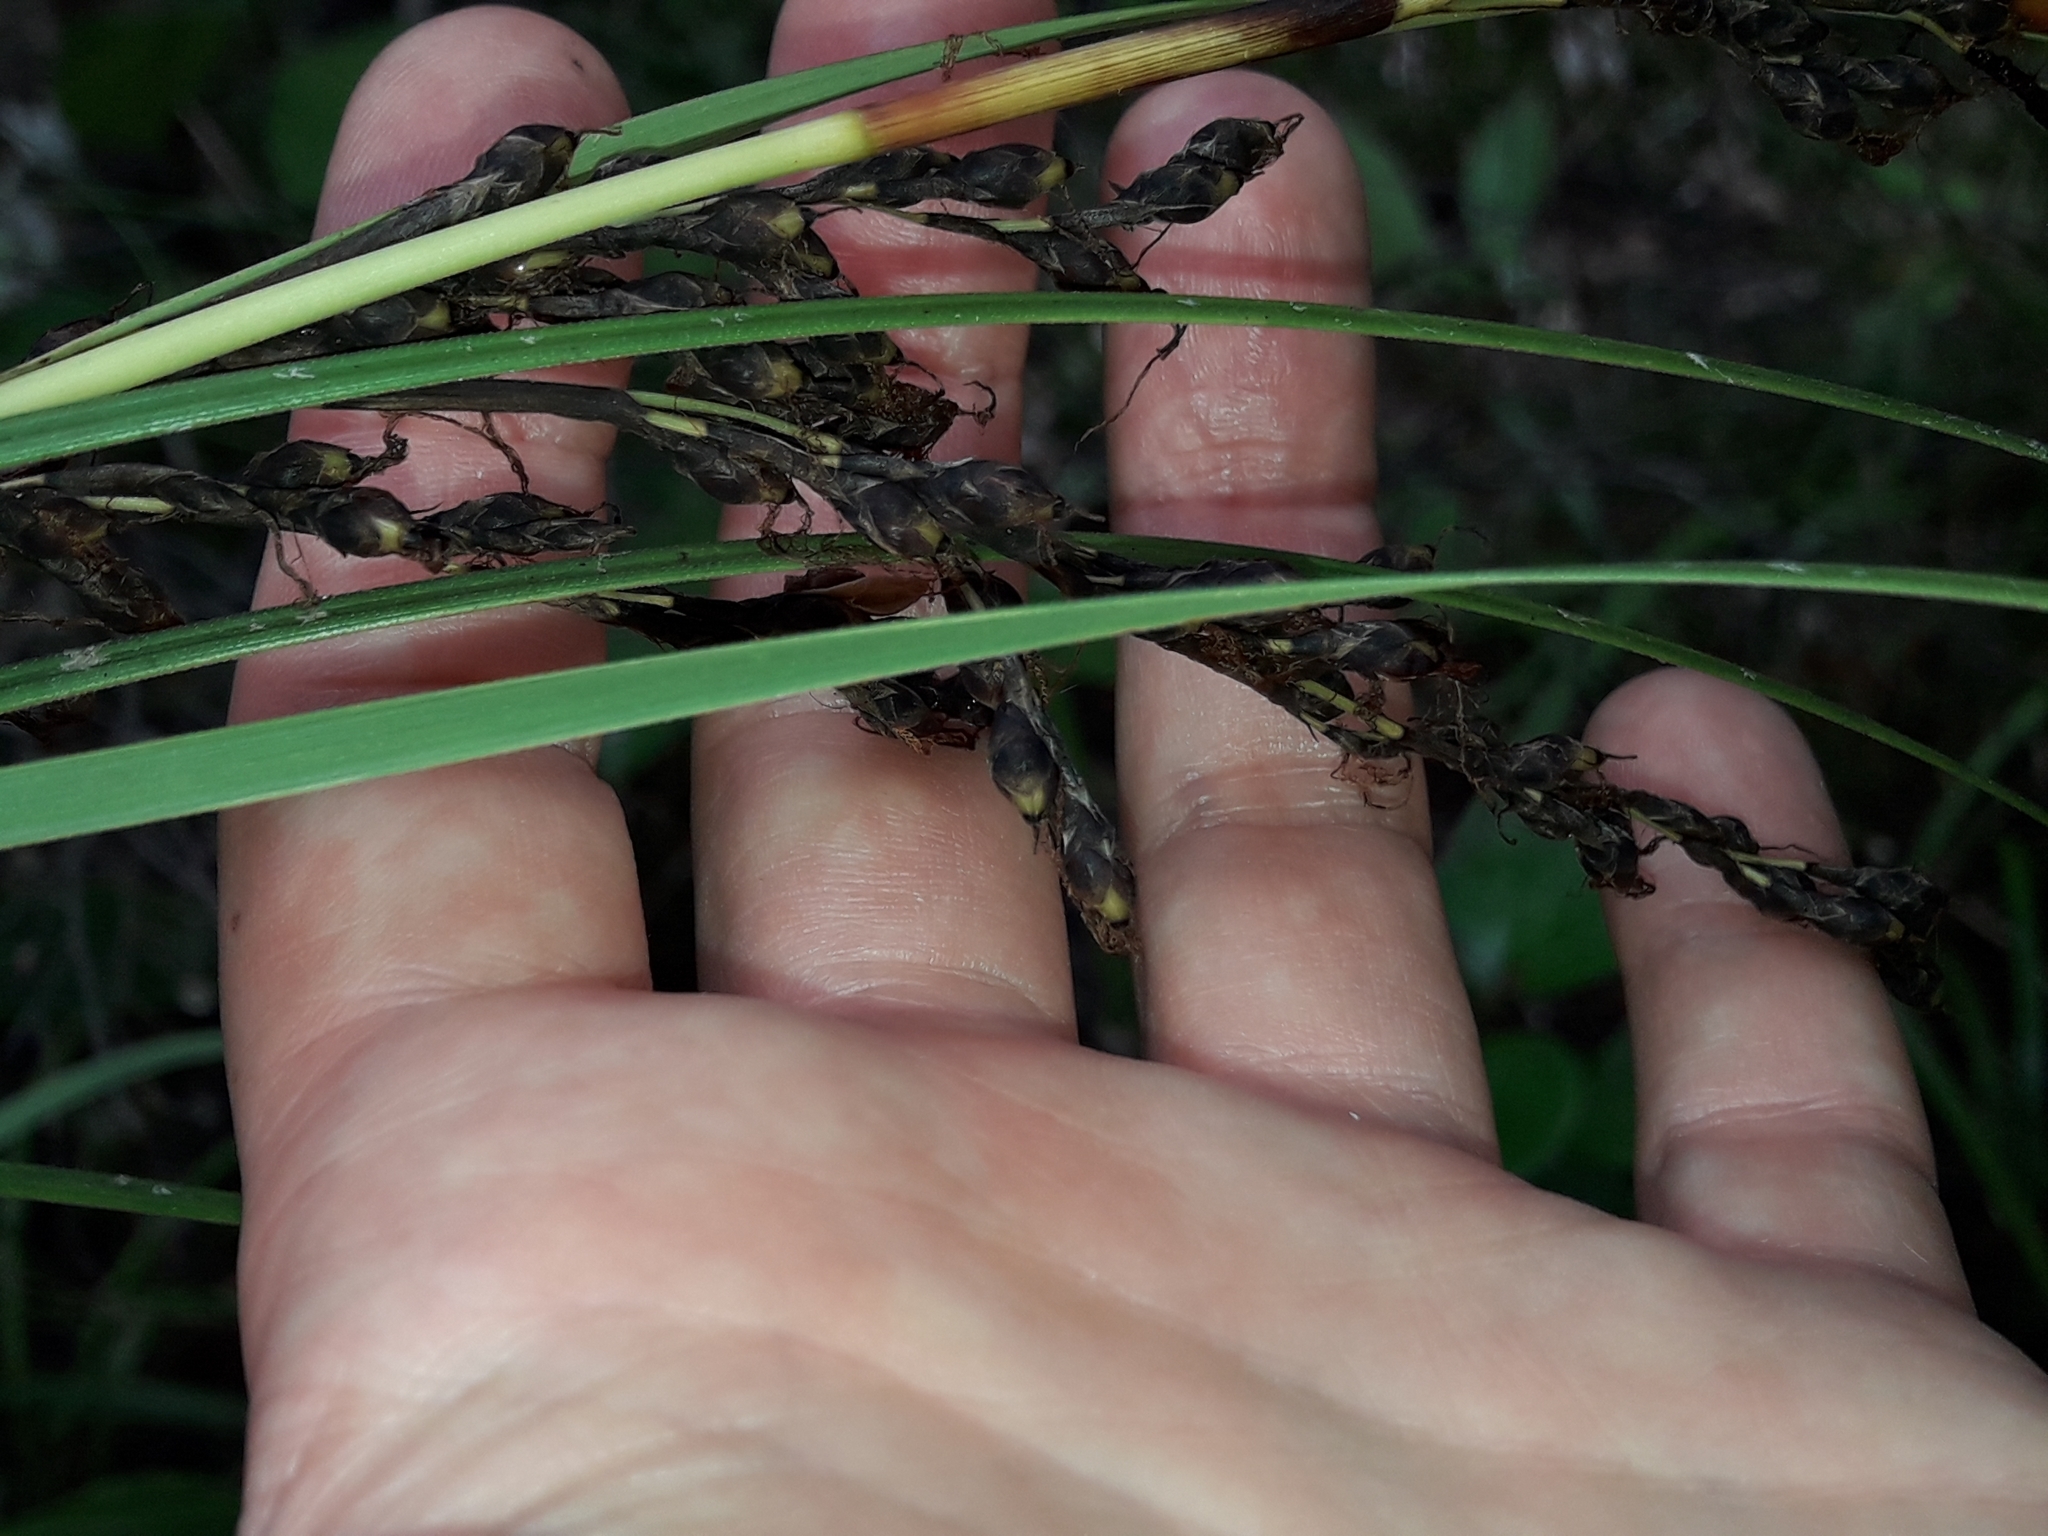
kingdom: Plantae
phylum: Tracheophyta
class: Liliopsida
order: Poales
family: Cyperaceae
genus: Gahnia
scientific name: Gahnia pauciflora
